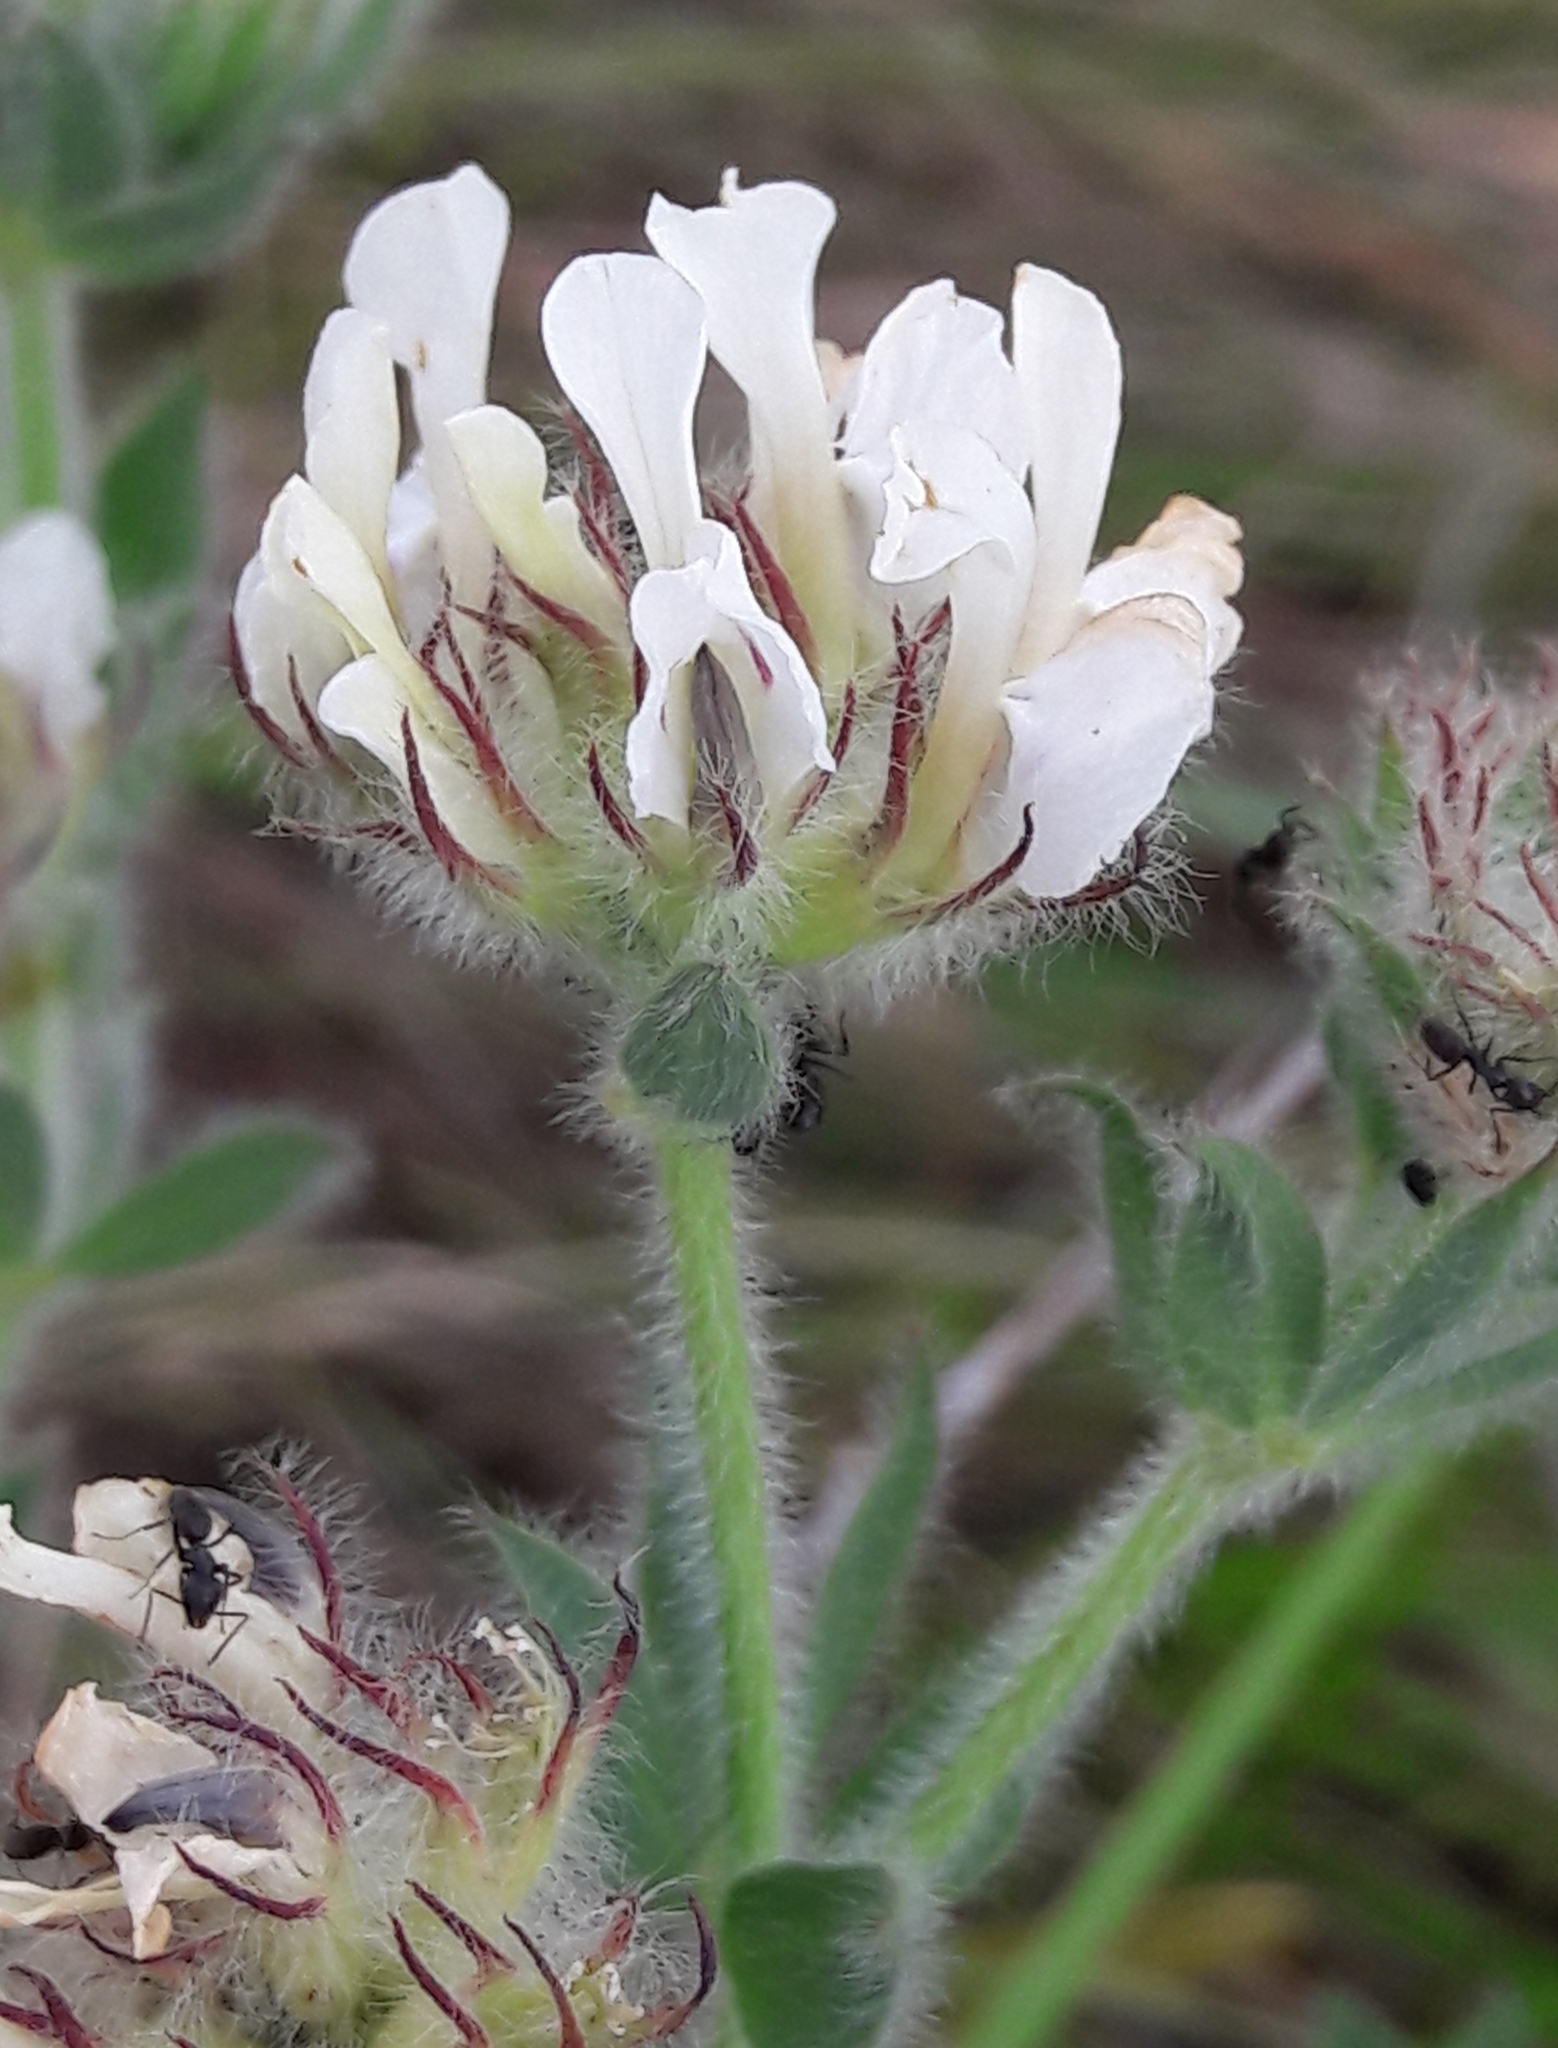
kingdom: Plantae
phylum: Tracheophyta
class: Magnoliopsida
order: Fabales
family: Fabaceae
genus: Lotus
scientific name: Lotus hirsutus
